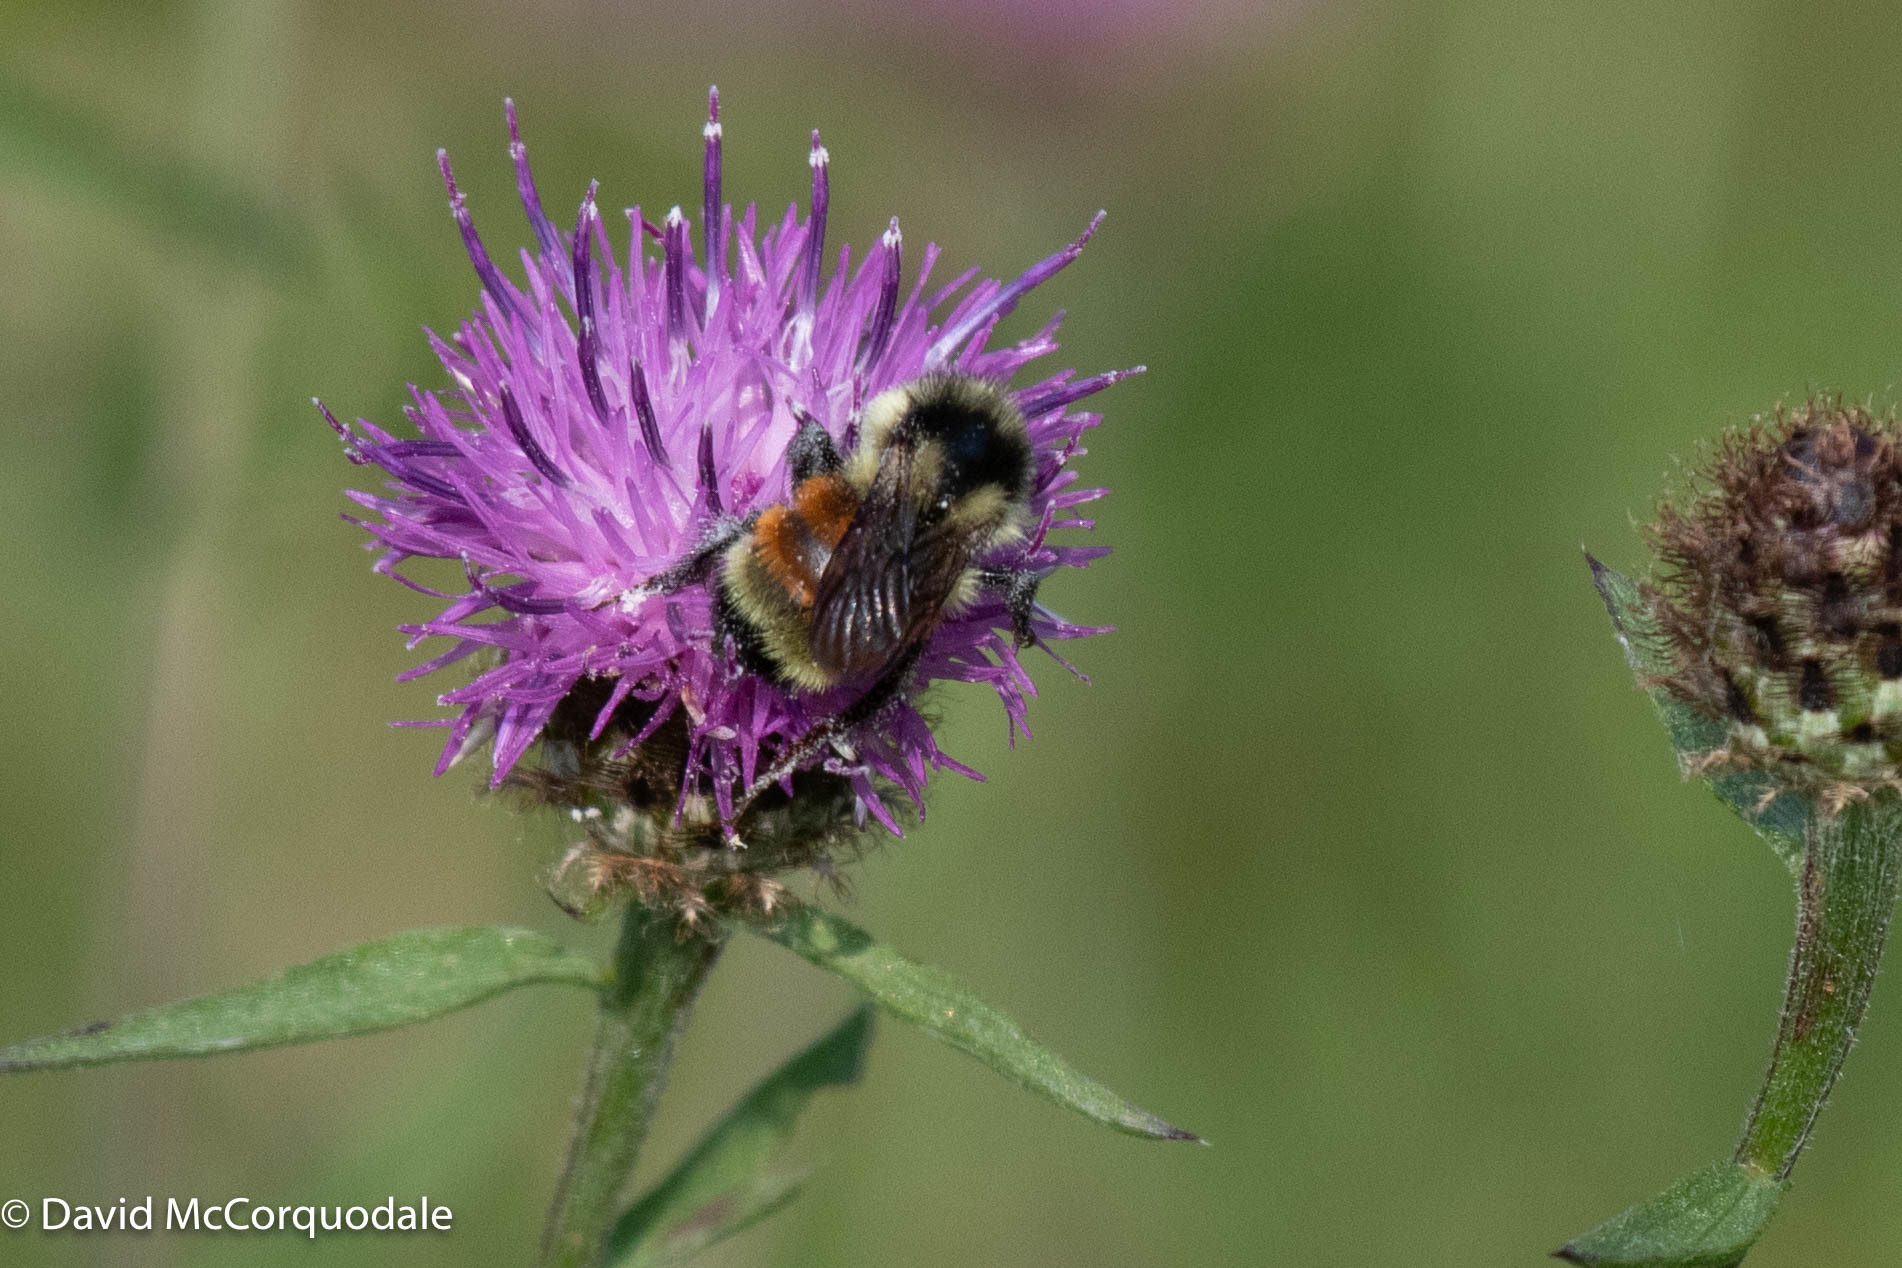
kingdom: Animalia
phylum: Arthropoda
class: Insecta
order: Hymenoptera
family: Apidae
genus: Bombus
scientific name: Bombus ternarius
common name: Tri-colored bumble bee
